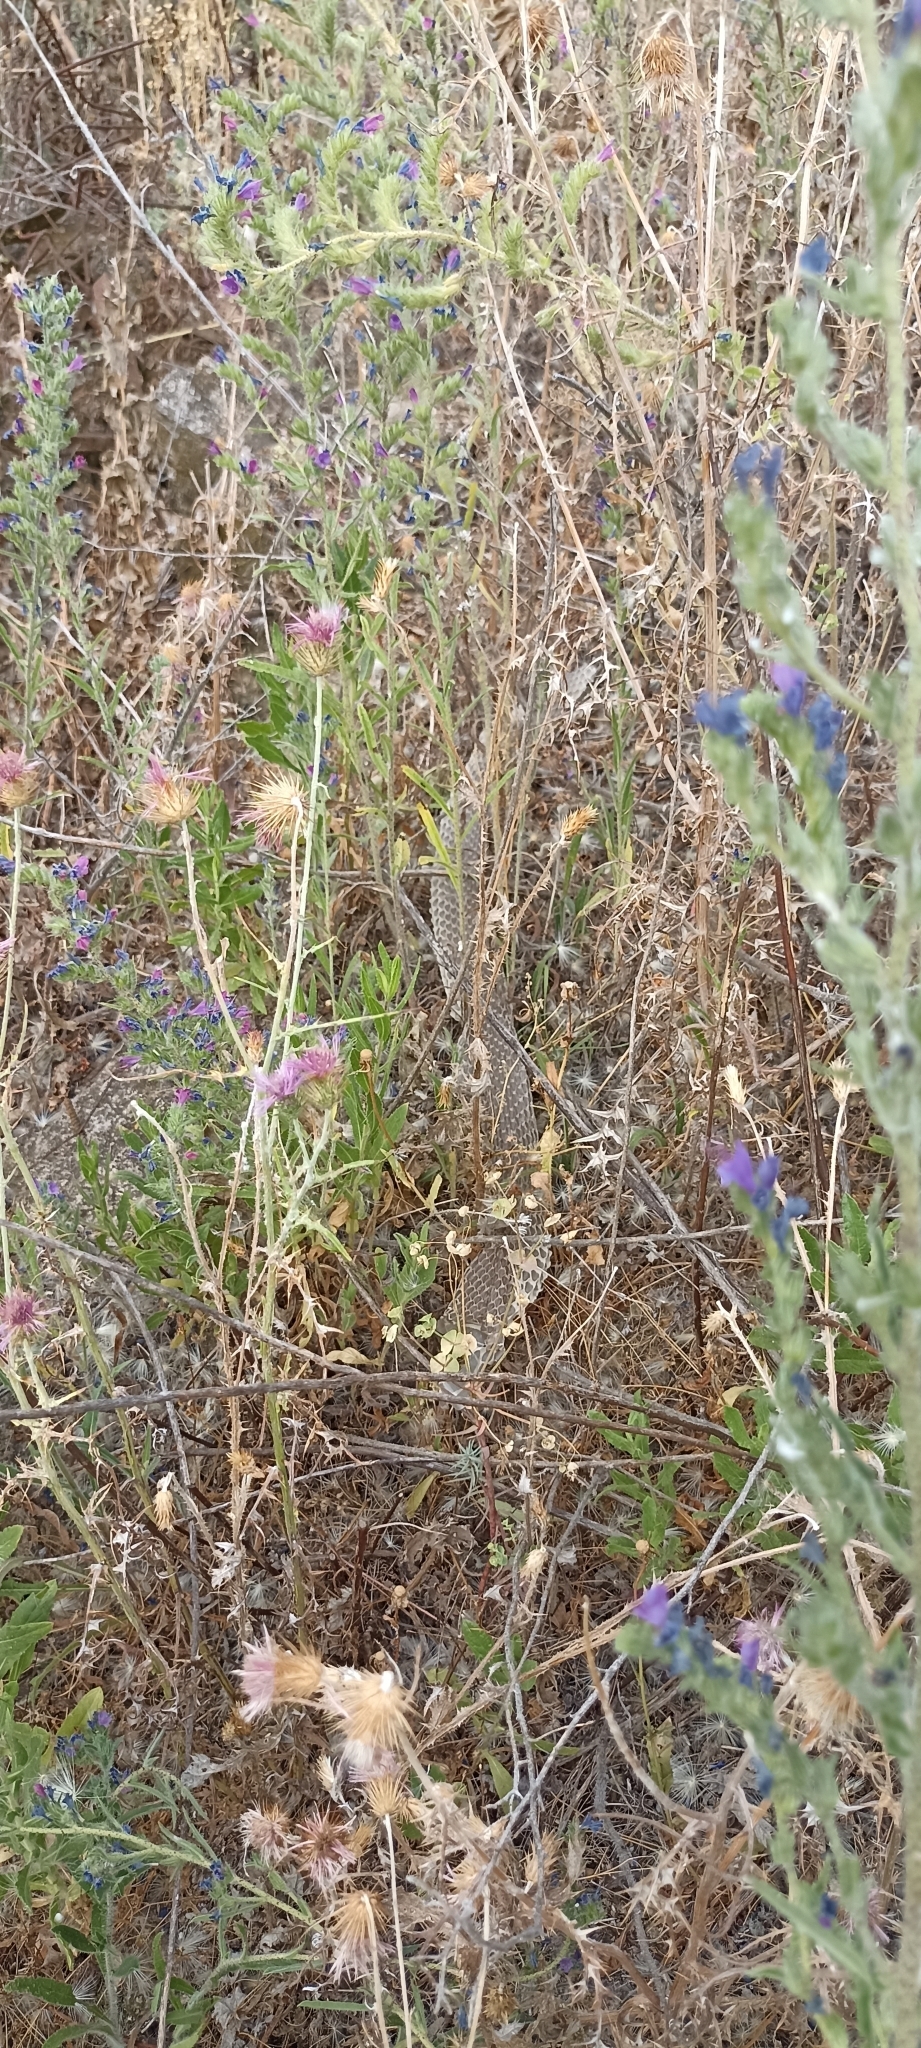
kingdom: Animalia
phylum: Chordata
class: Squamata
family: Psammophiidae
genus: Malpolon
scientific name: Malpolon monspessulanus
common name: Montpellier snake
